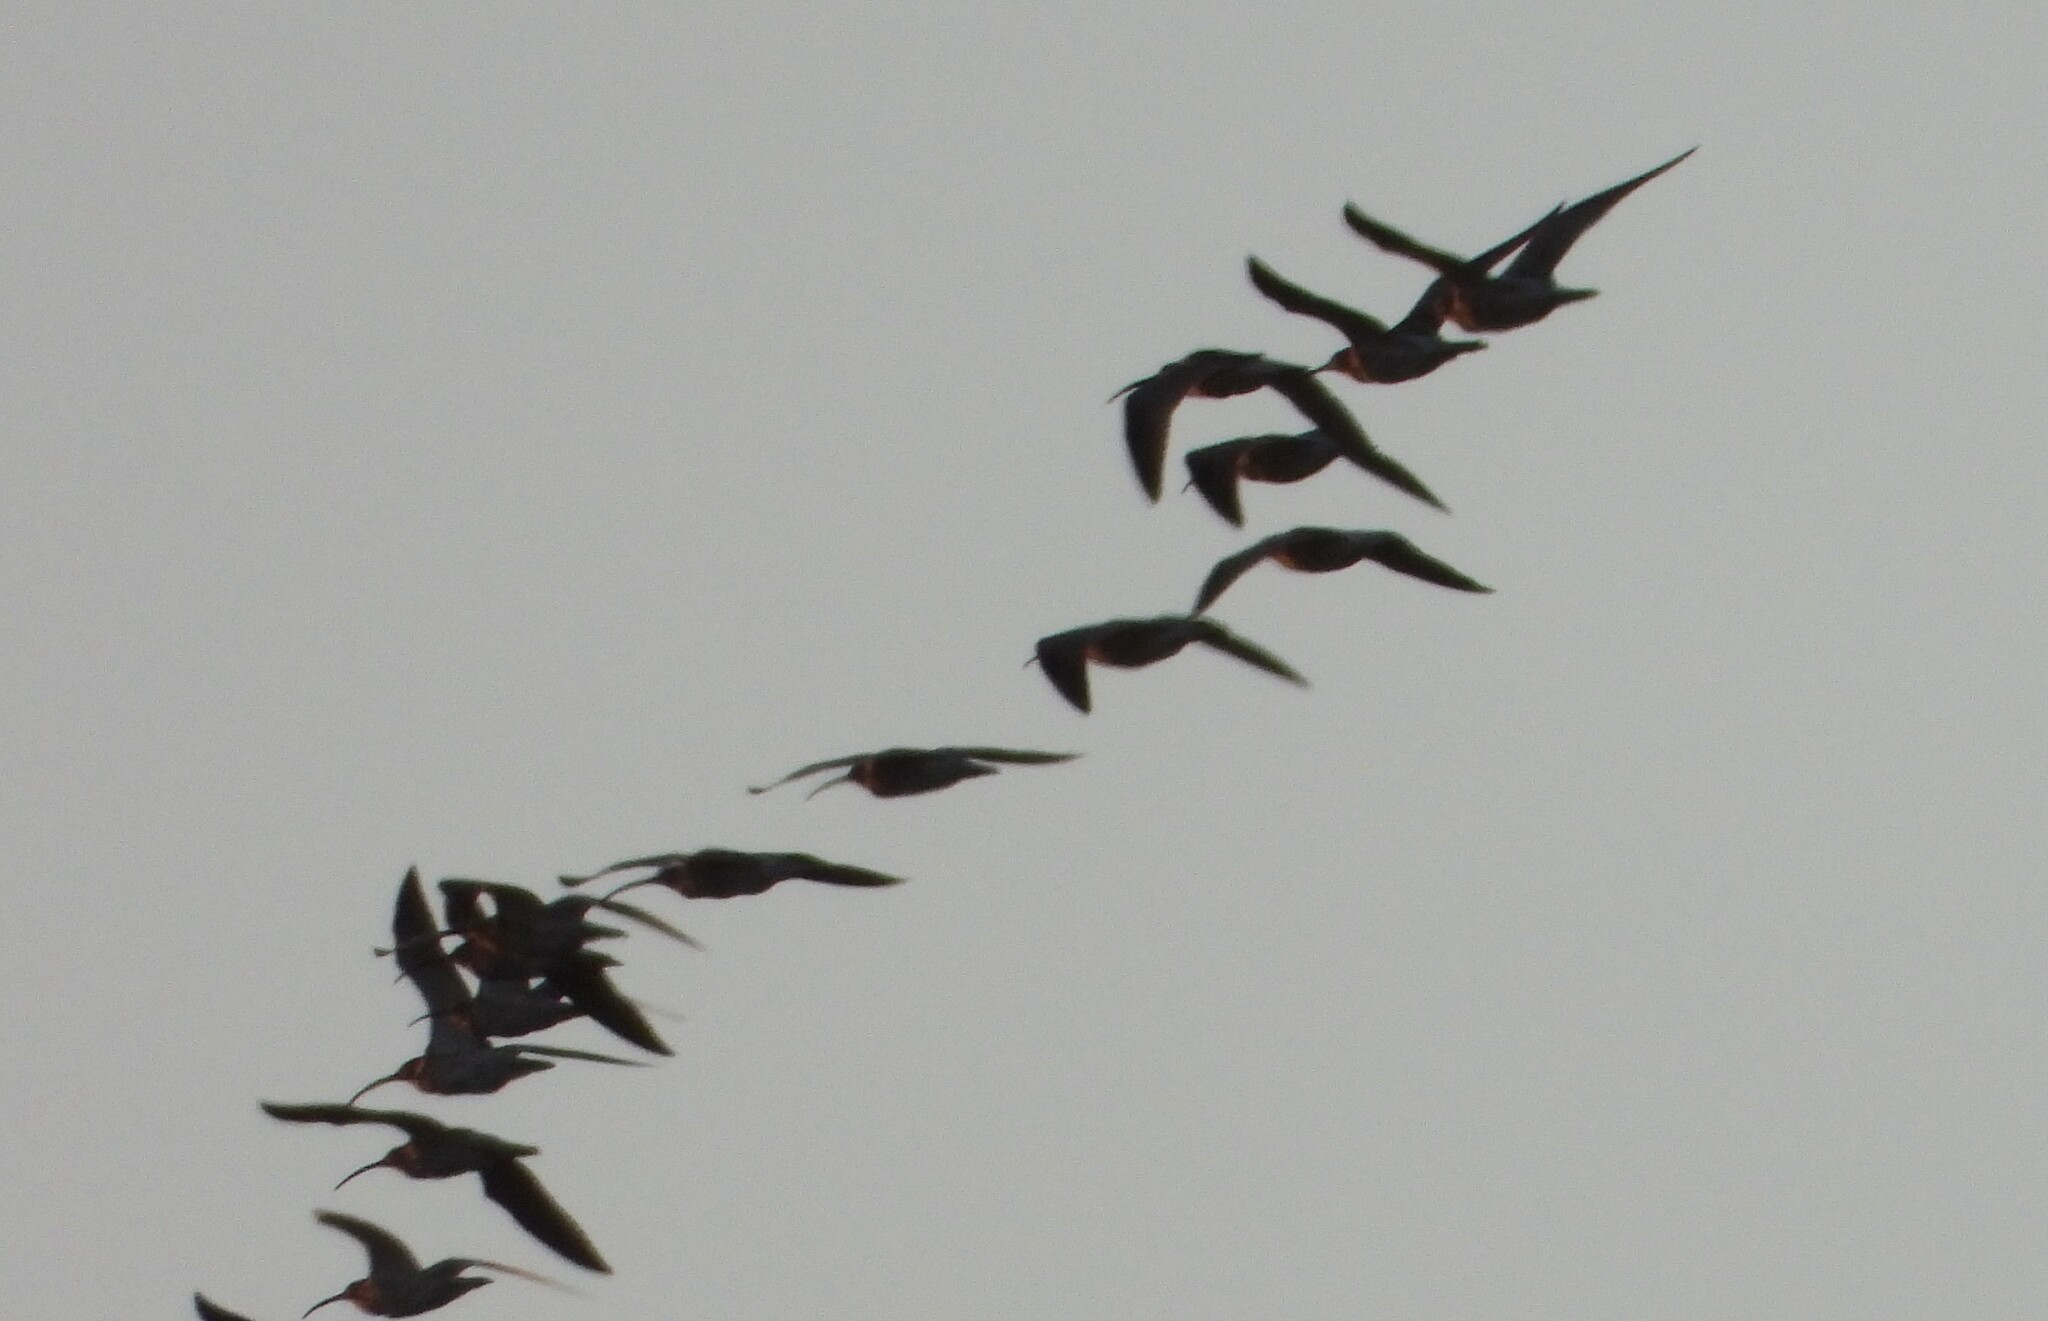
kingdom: Animalia
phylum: Chordata
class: Aves
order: Charadriiformes
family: Scolopacidae
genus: Numenius
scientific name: Numenius arquata
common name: Eurasian curlew
